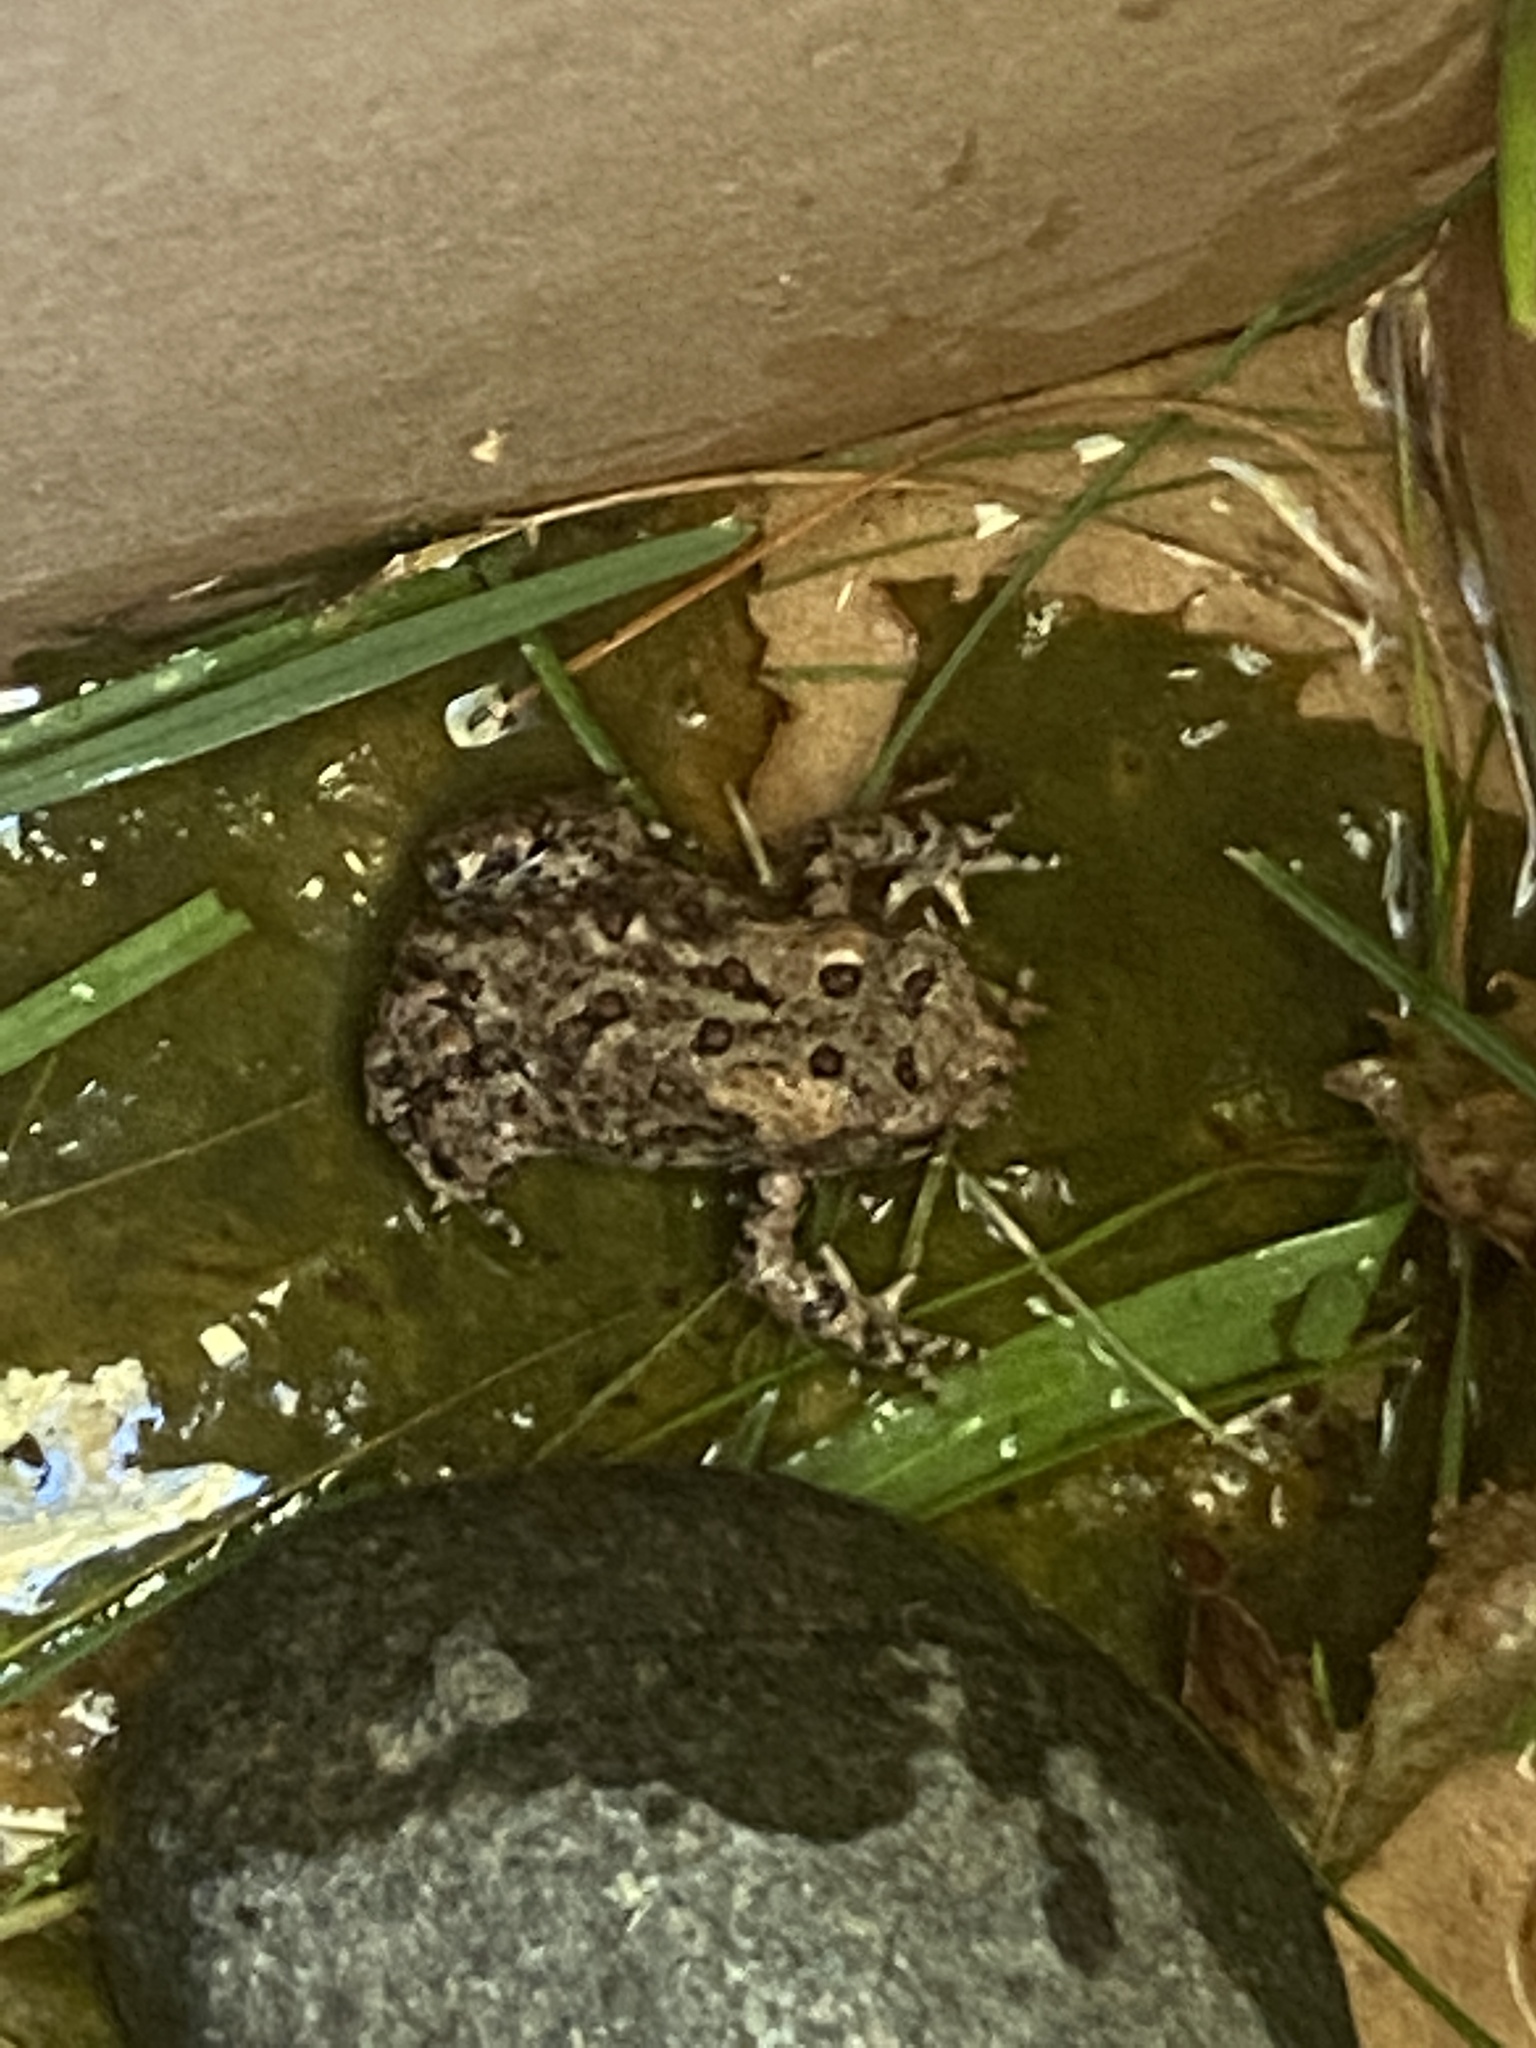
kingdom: Animalia
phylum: Chordata
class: Amphibia
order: Anura
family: Bufonidae
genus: Anaxyrus
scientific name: Anaxyrus americanus
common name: American toad
